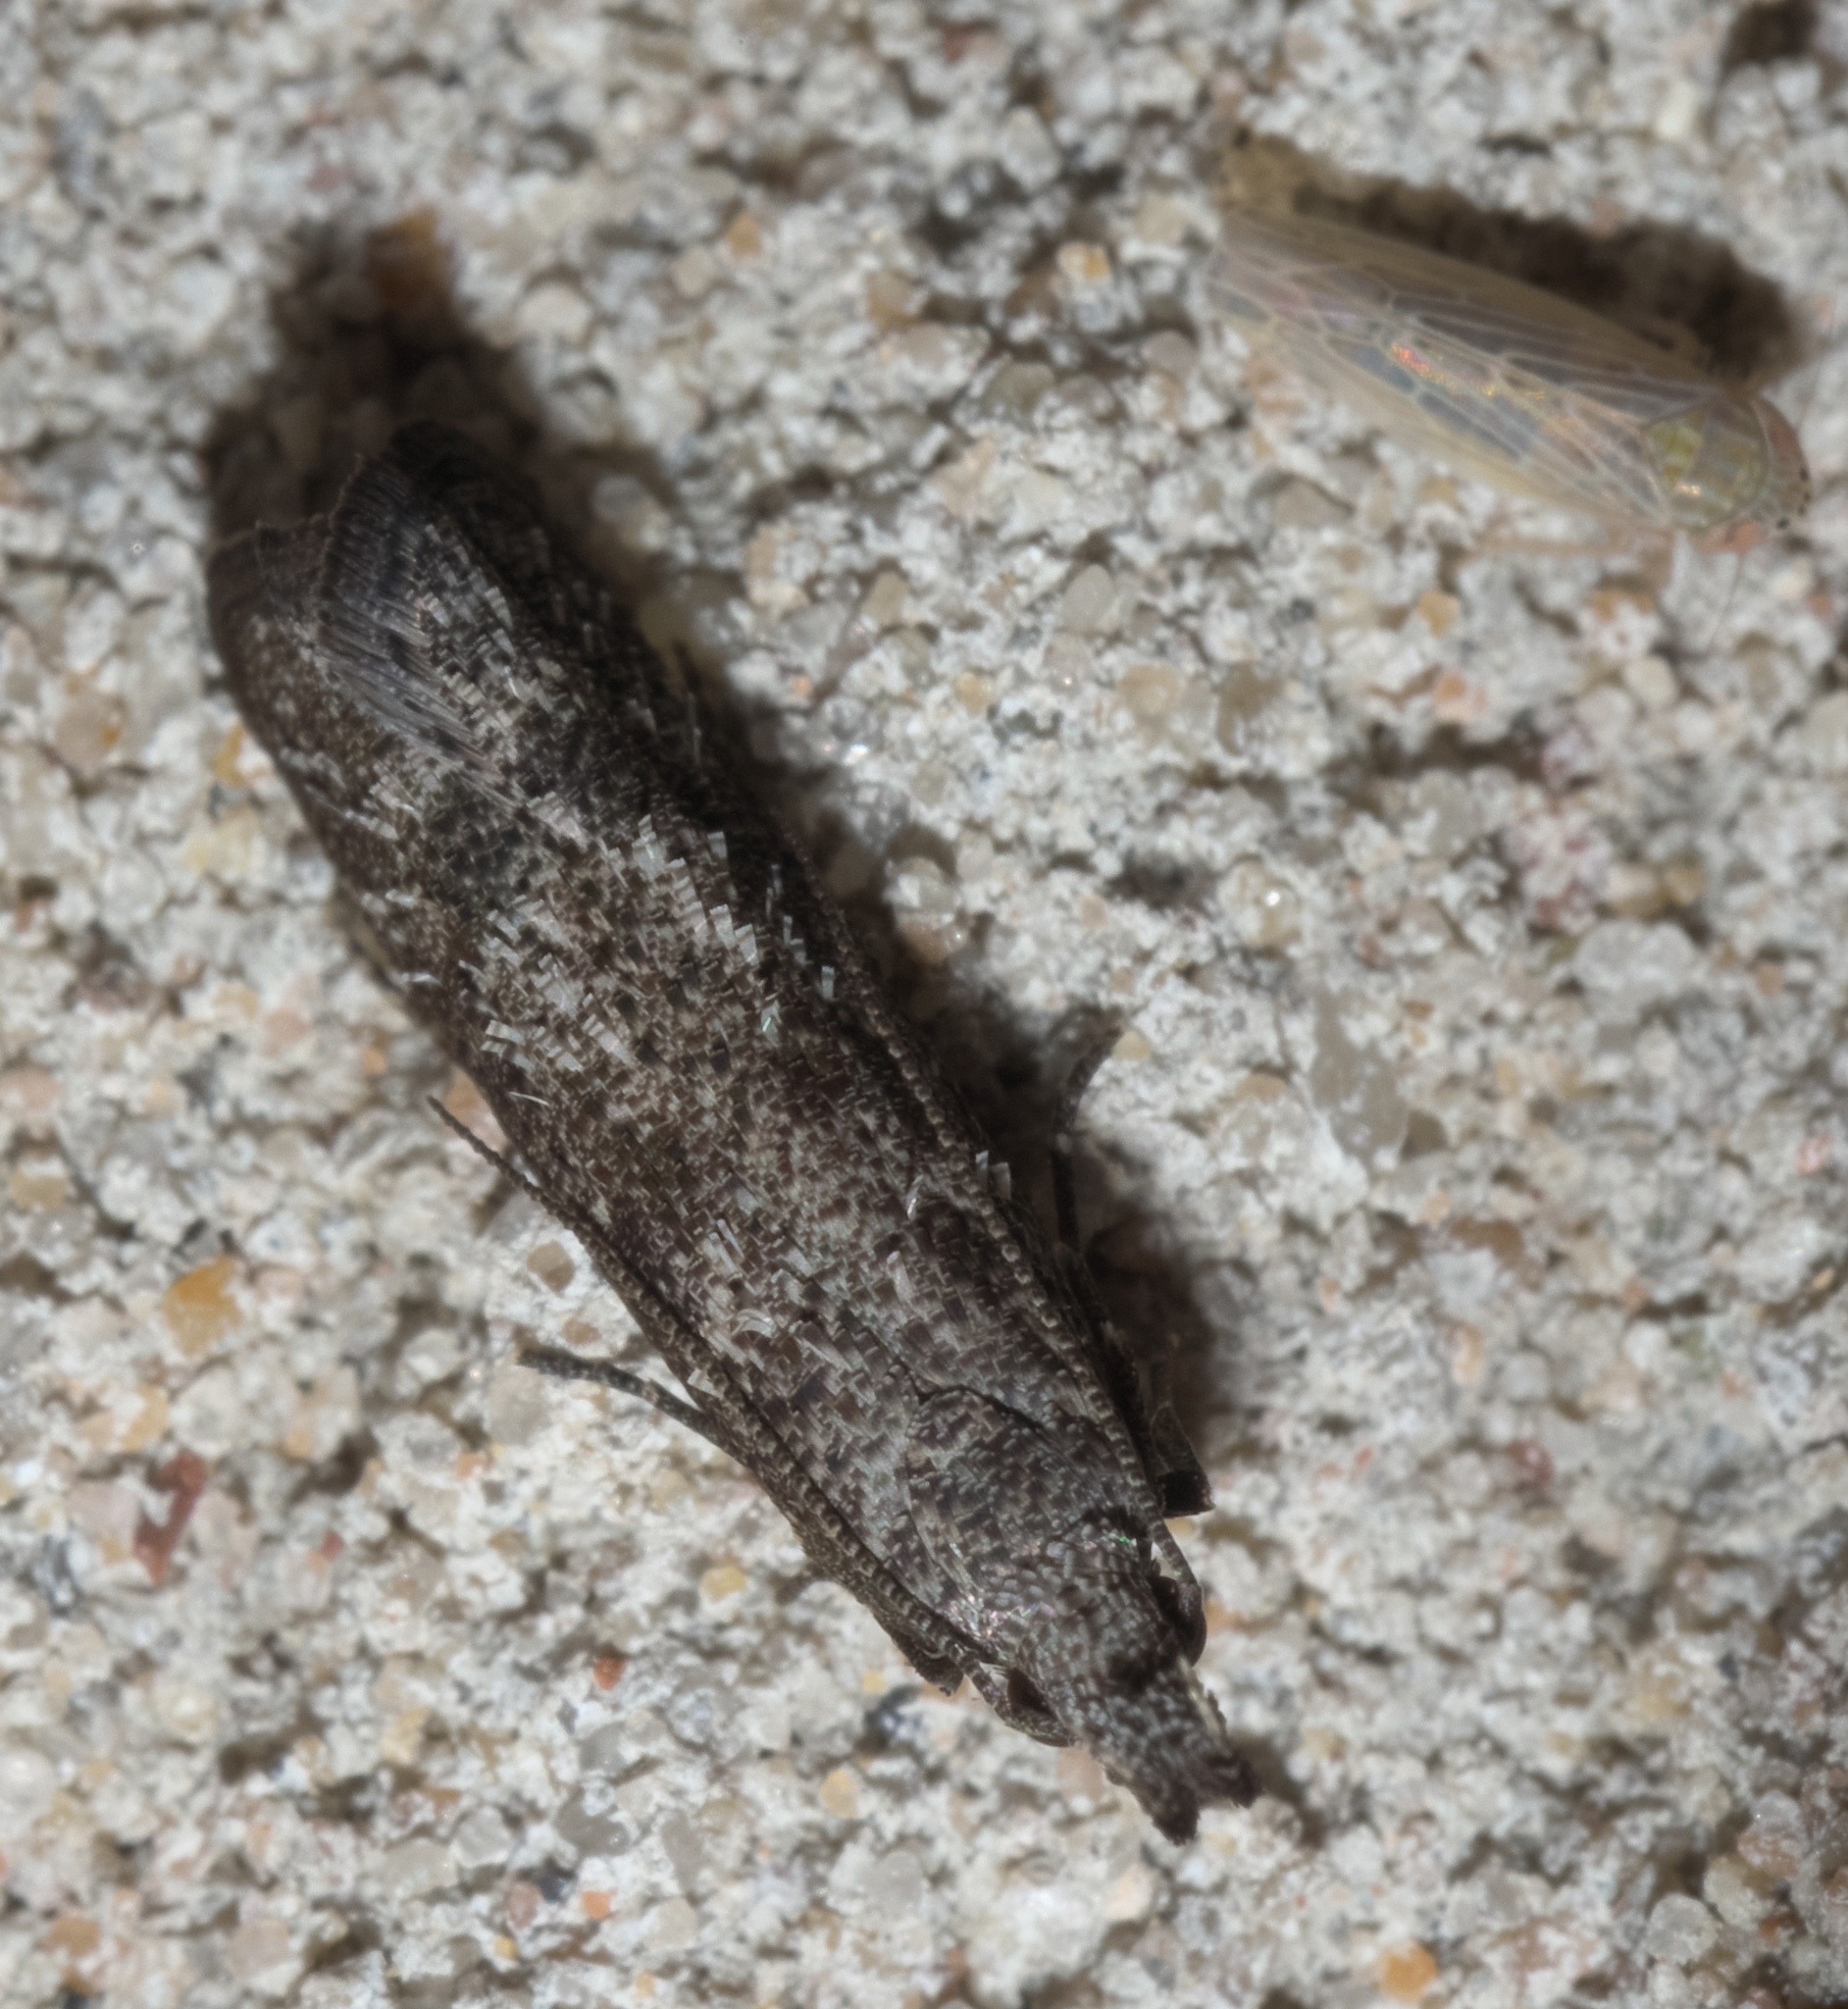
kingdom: Animalia
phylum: Arthropoda
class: Insecta
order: Lepidoptera
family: Gelechiidae
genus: Dichomeris
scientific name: Dichomeris inversella
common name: Inverse dichomeris moth
